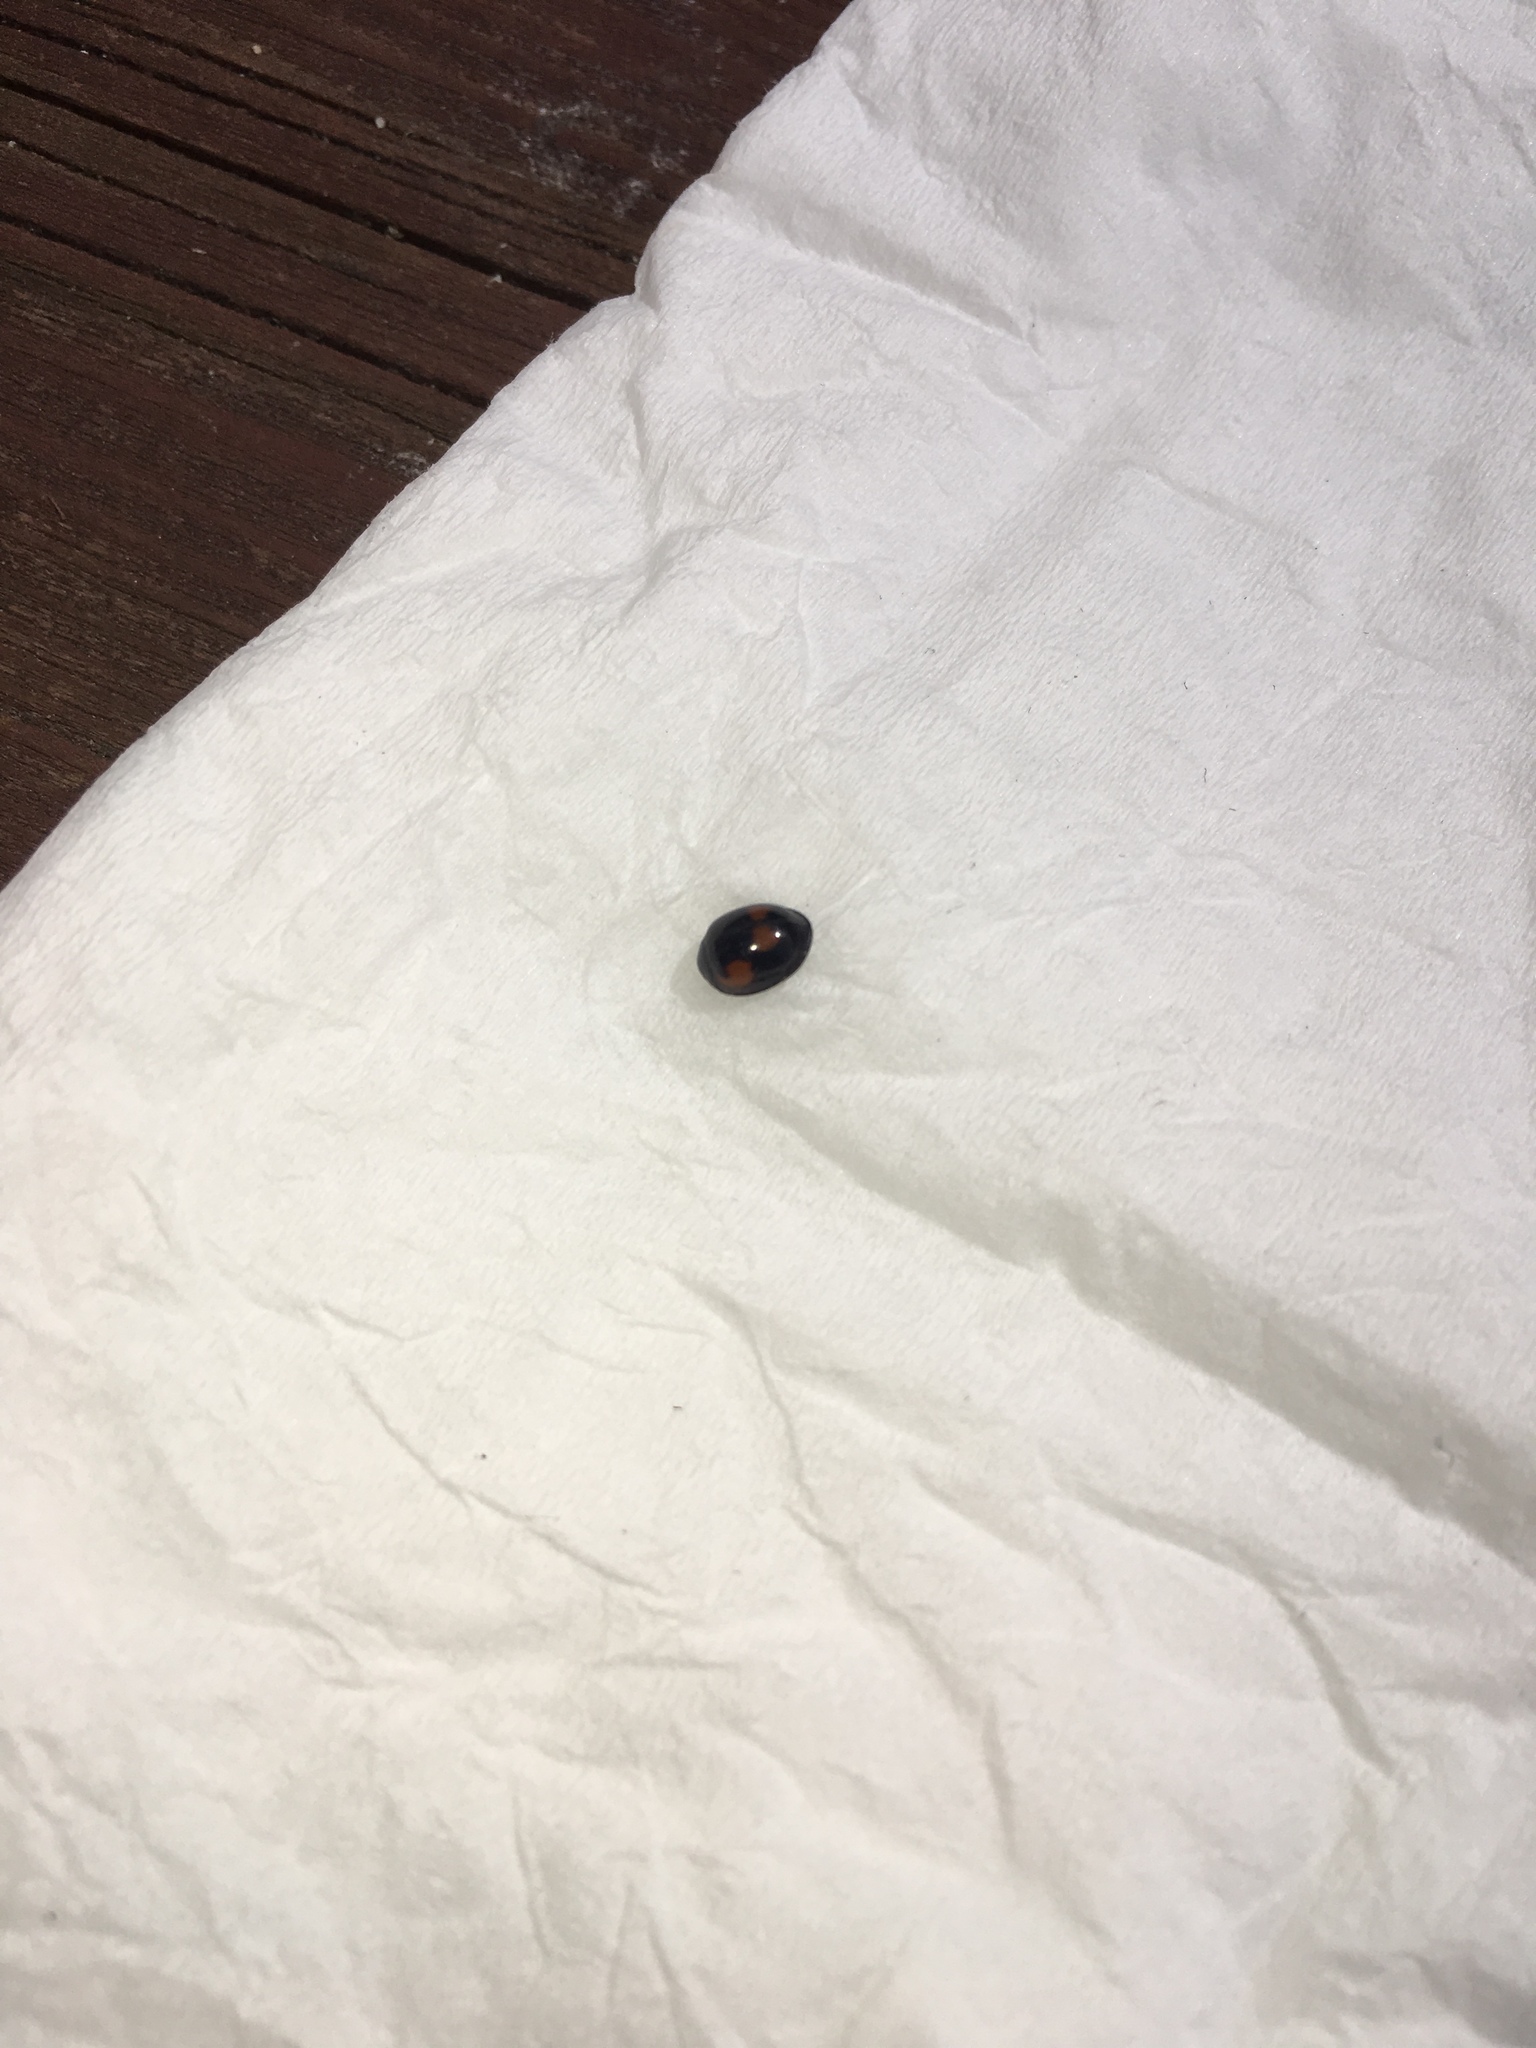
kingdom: Animalia
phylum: Arthropoda
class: Insecta
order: Coleoptera
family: Coccinellidae
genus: Brumus
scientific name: Brumus quadripustulatus
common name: Ladybird beetle
